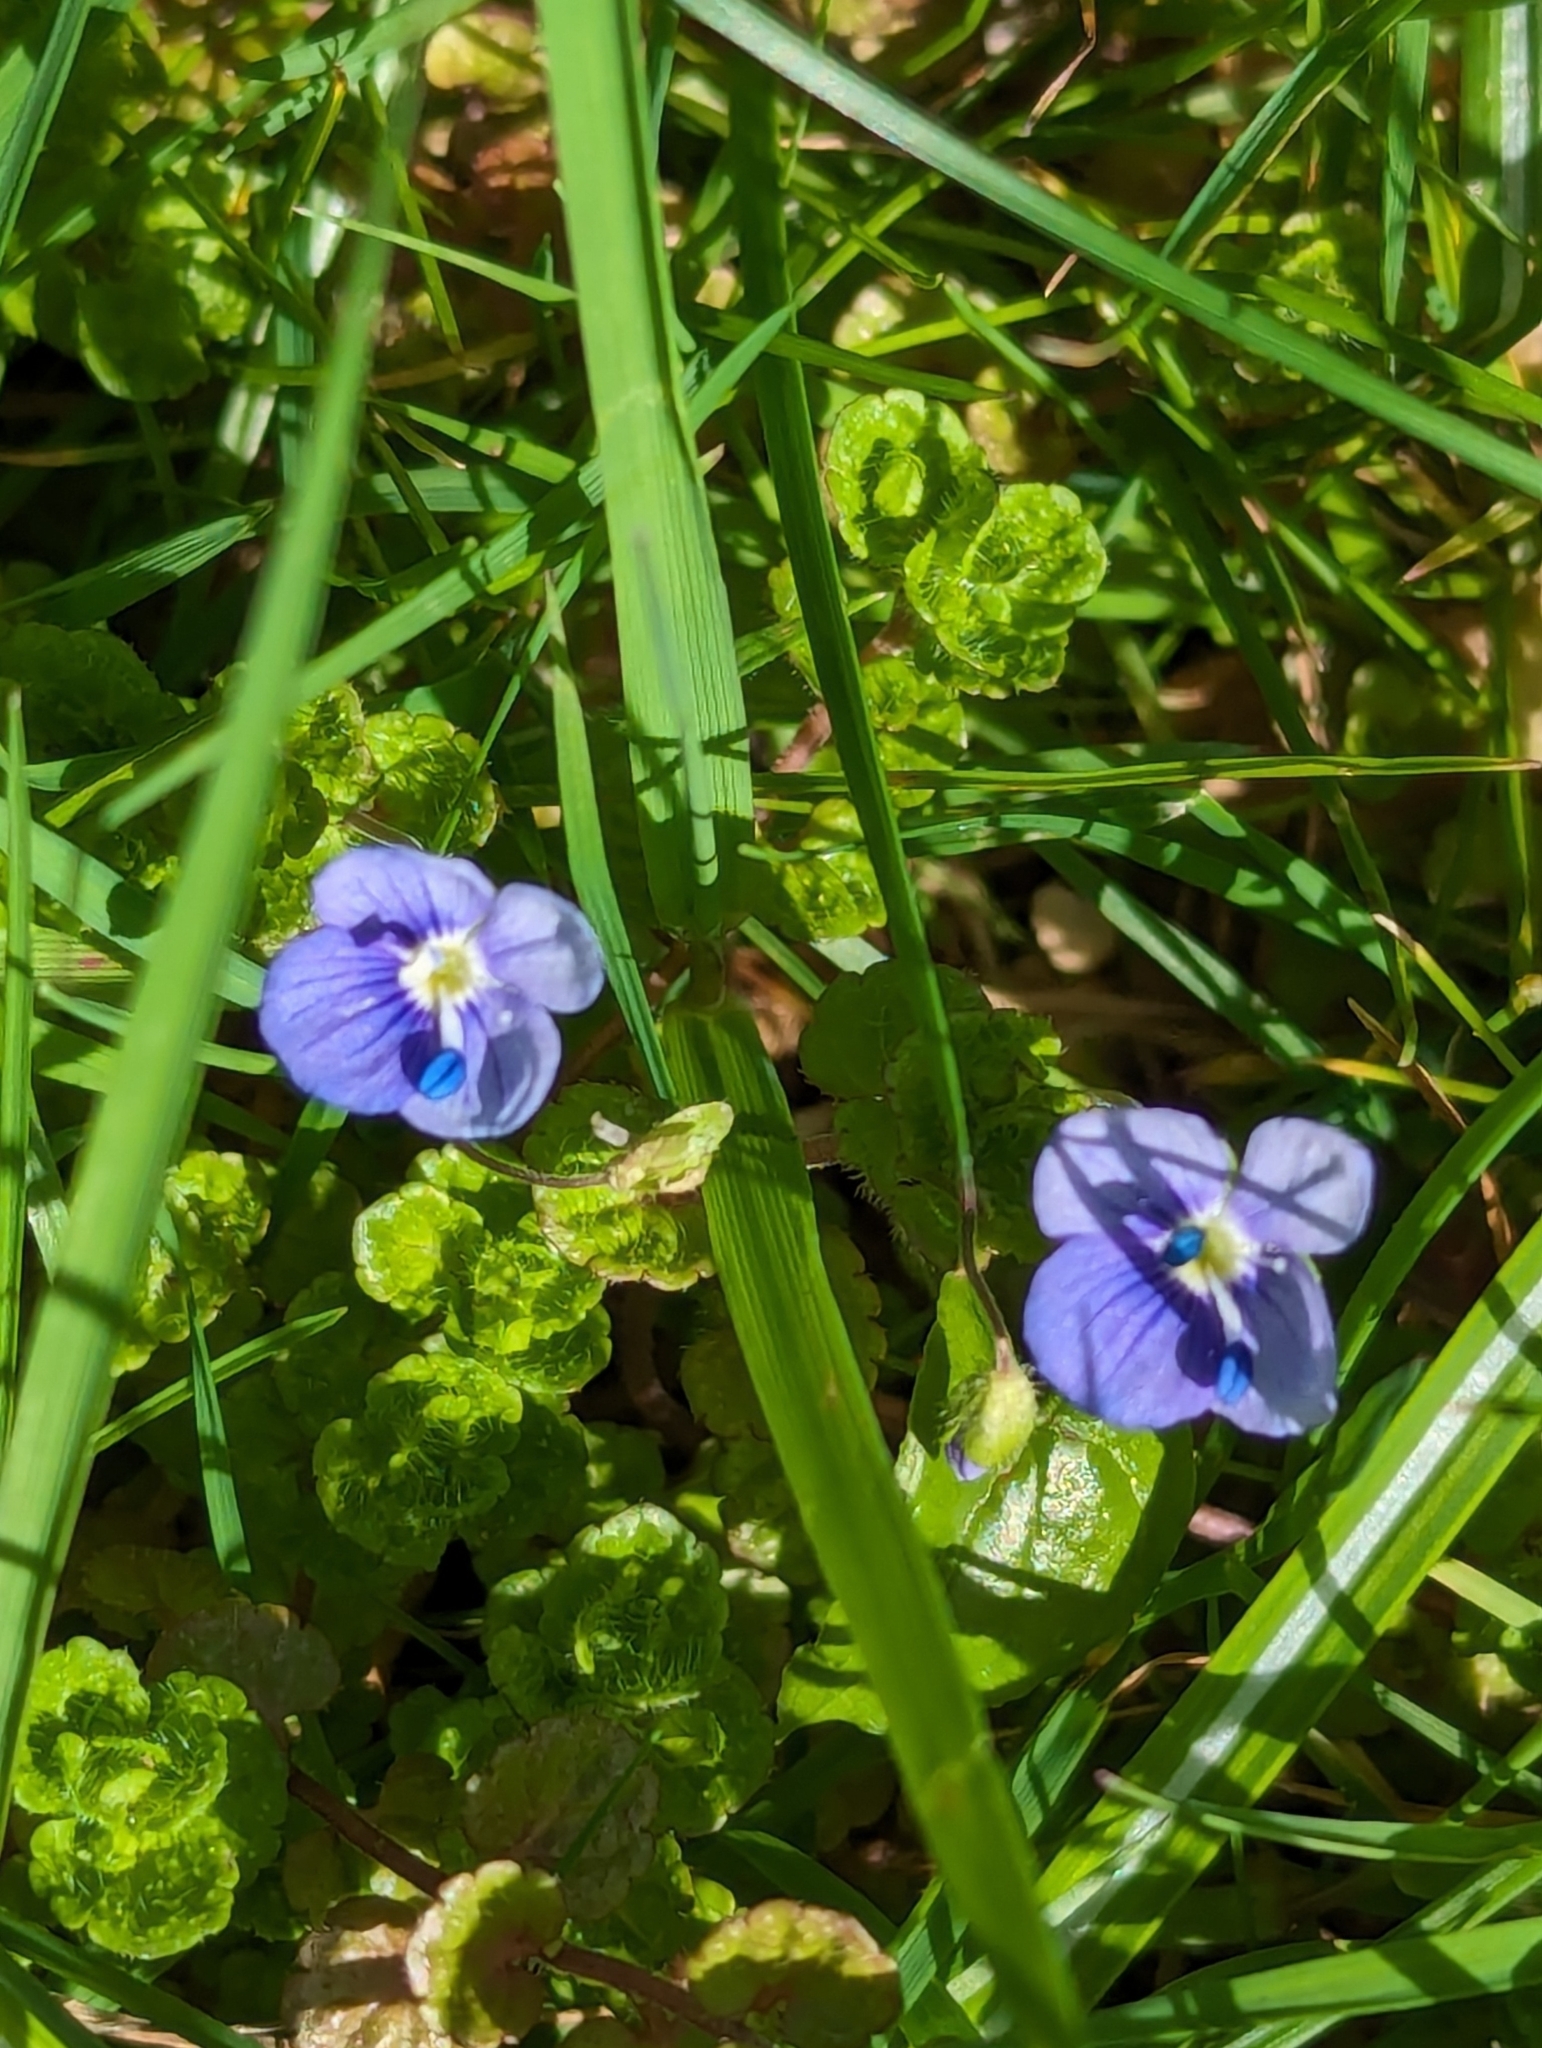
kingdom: Plantae
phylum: Tracheophyta
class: Magnoliopsida
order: Lamiales
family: Plantaginaceae
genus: Veronica
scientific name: Veronica filiformis
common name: Slender speedwell
